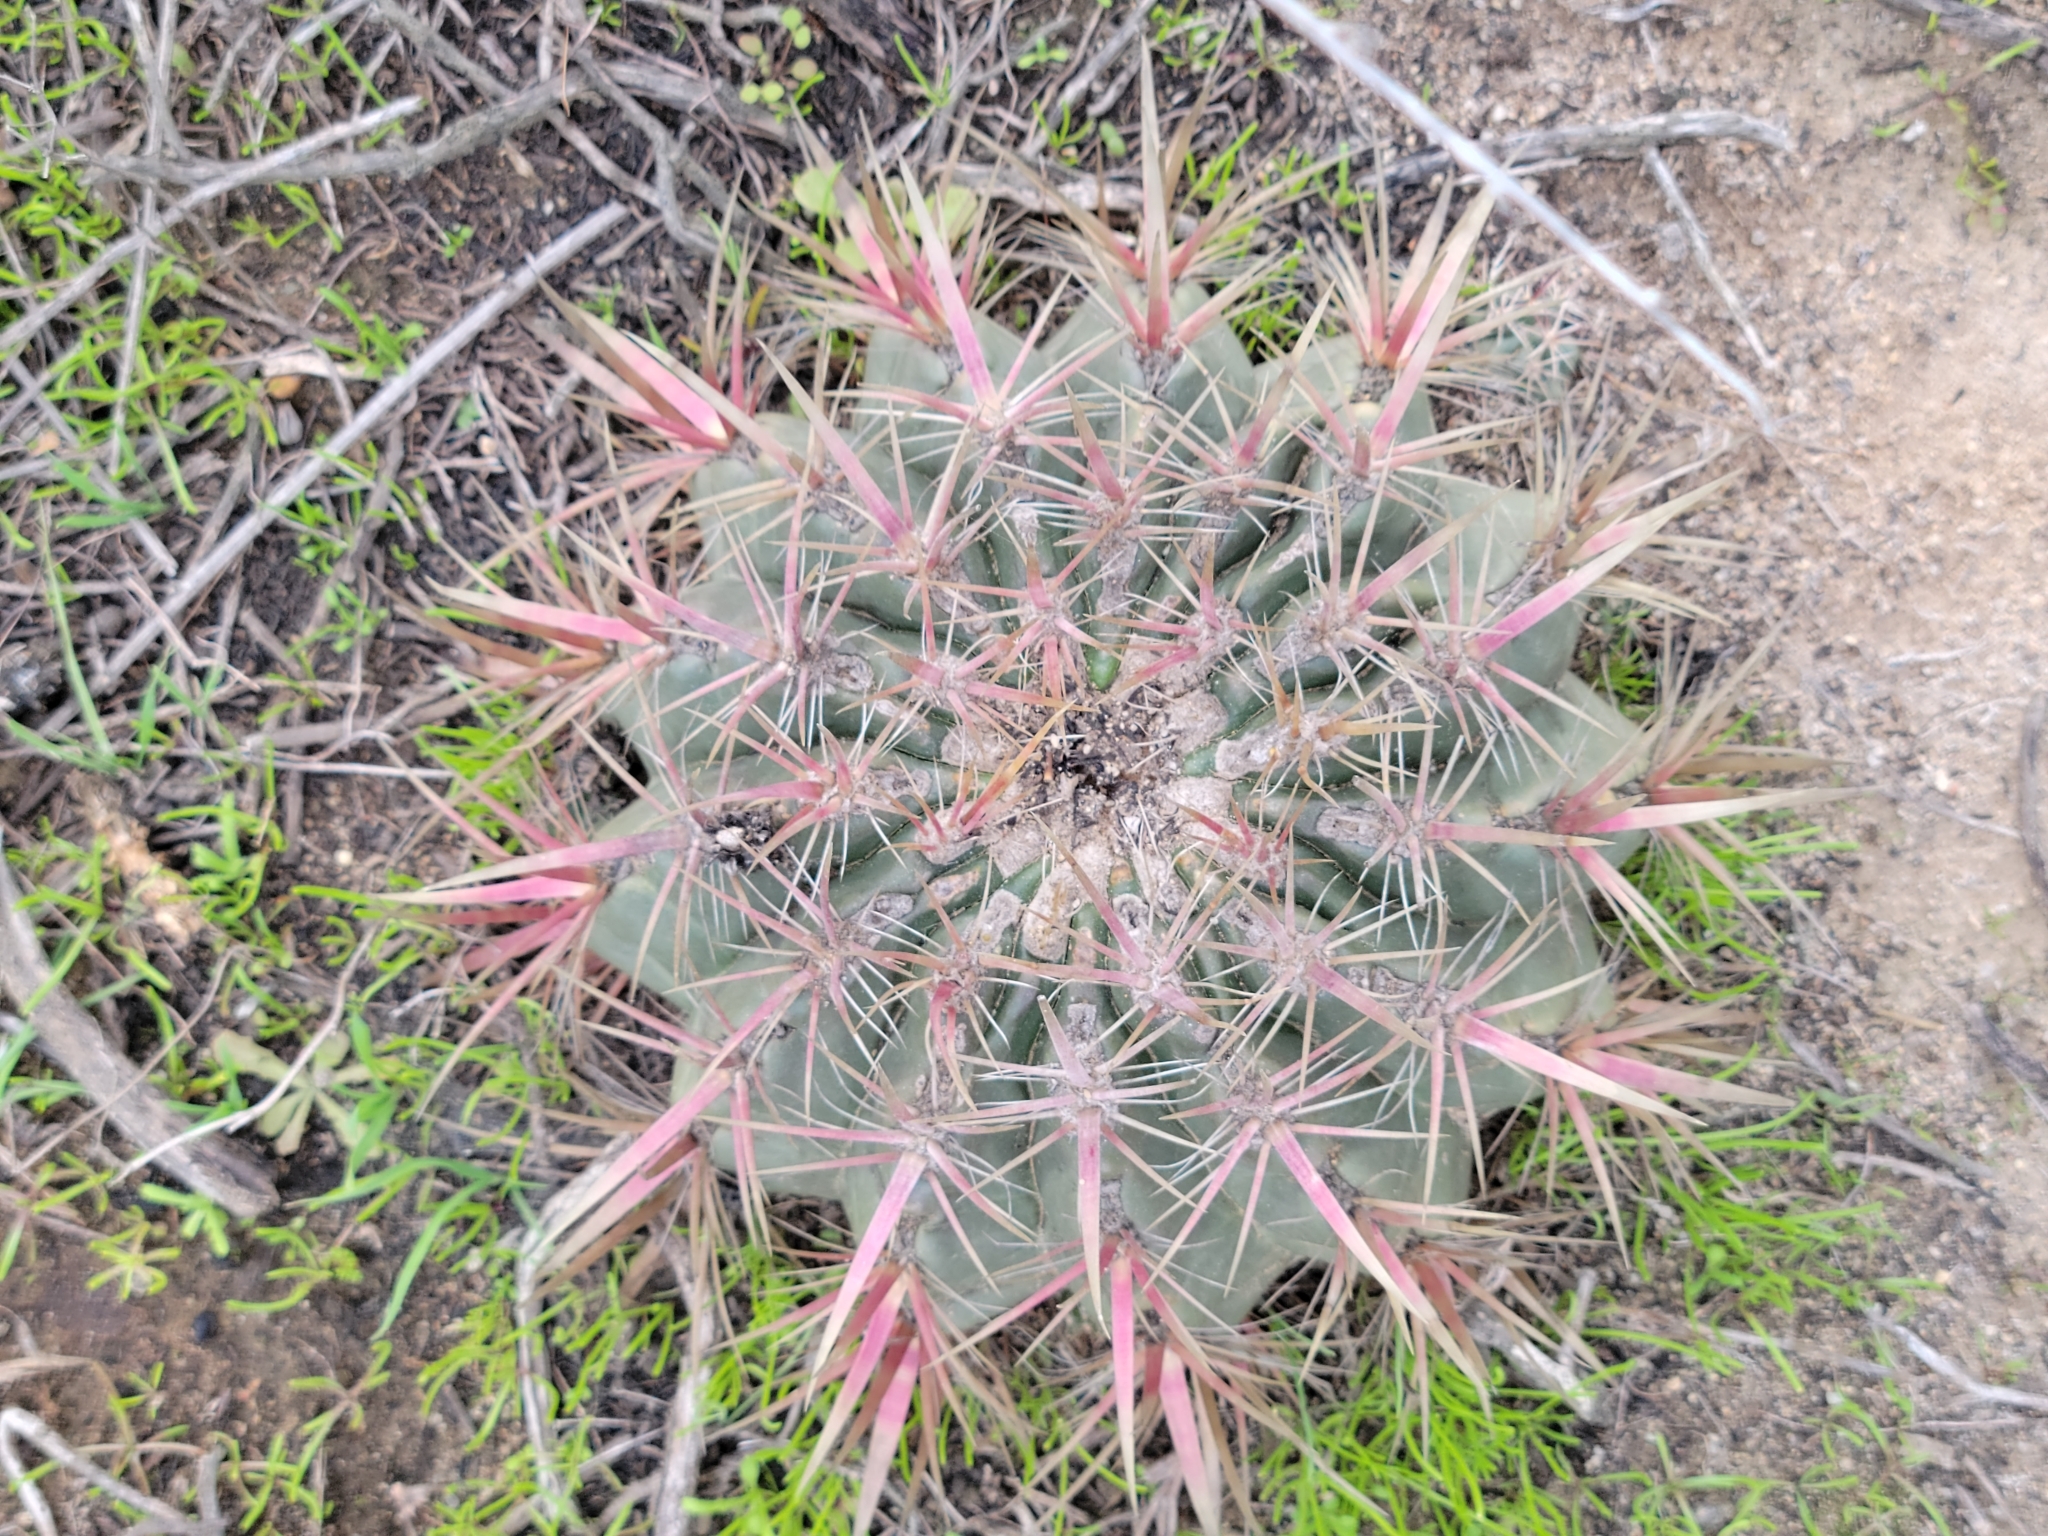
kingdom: Plantae
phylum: Tracheophyta
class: Magnoliopsida
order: Caryophyllales
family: Cactaceae
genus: Ferocactus
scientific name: Ferocactus viridescens
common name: San diego barrel cactus
